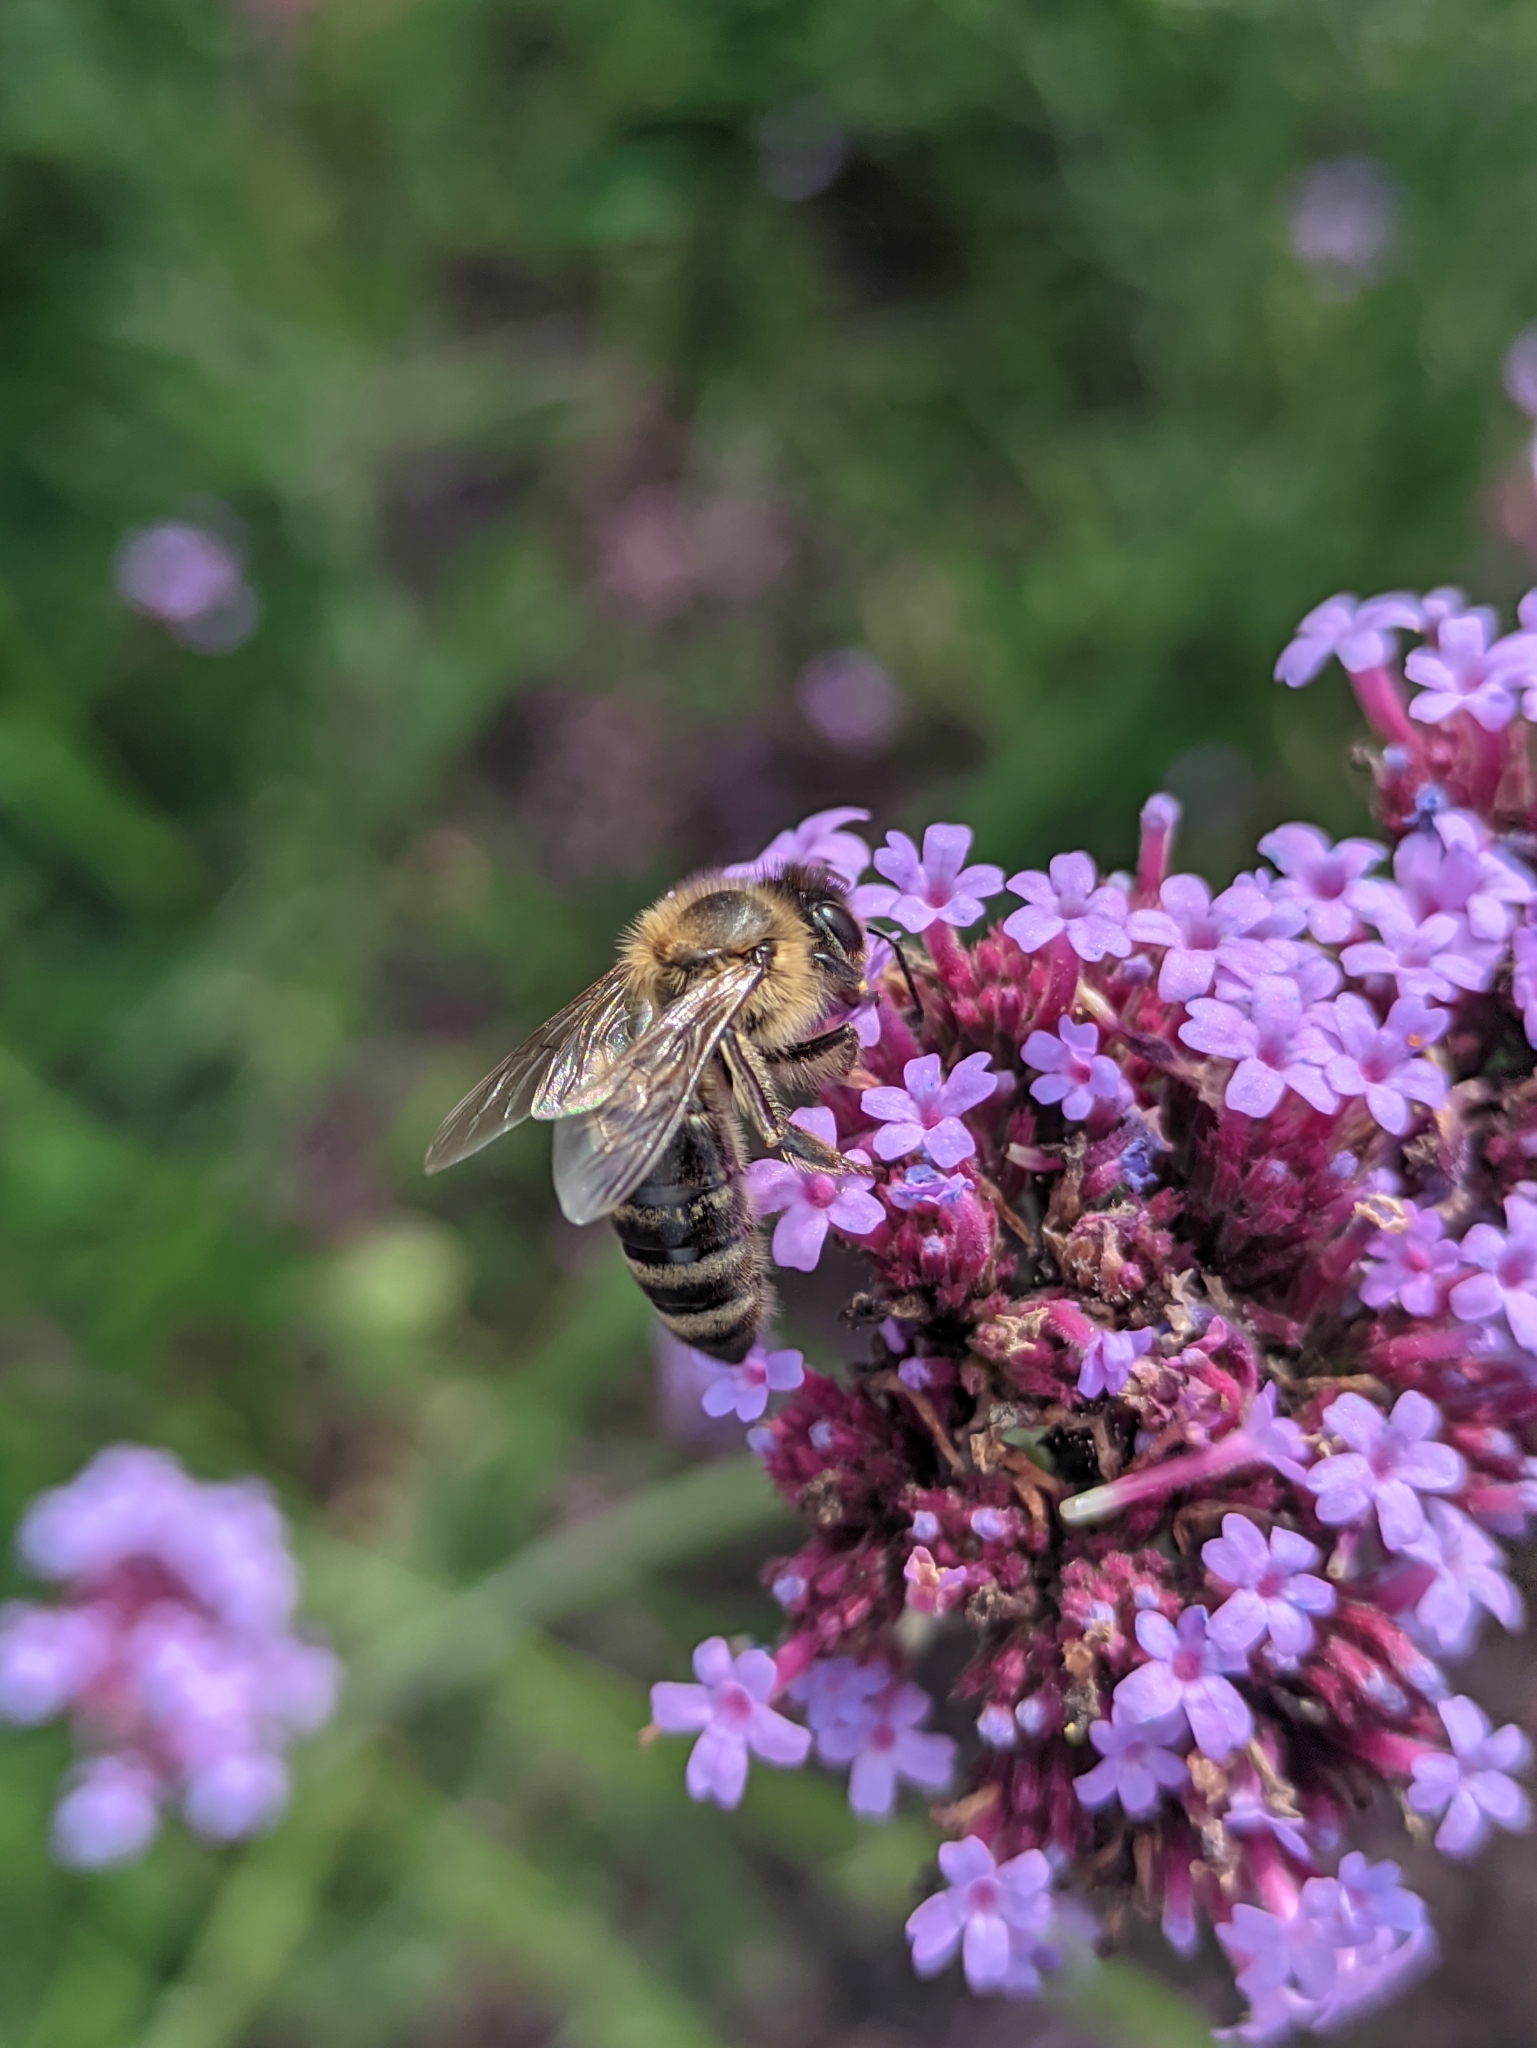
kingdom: Animalia
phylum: Arthropoda
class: Insecta
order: Hymenoptera
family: Apidae
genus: Apis
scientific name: Apis mellifera
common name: Honey bee
